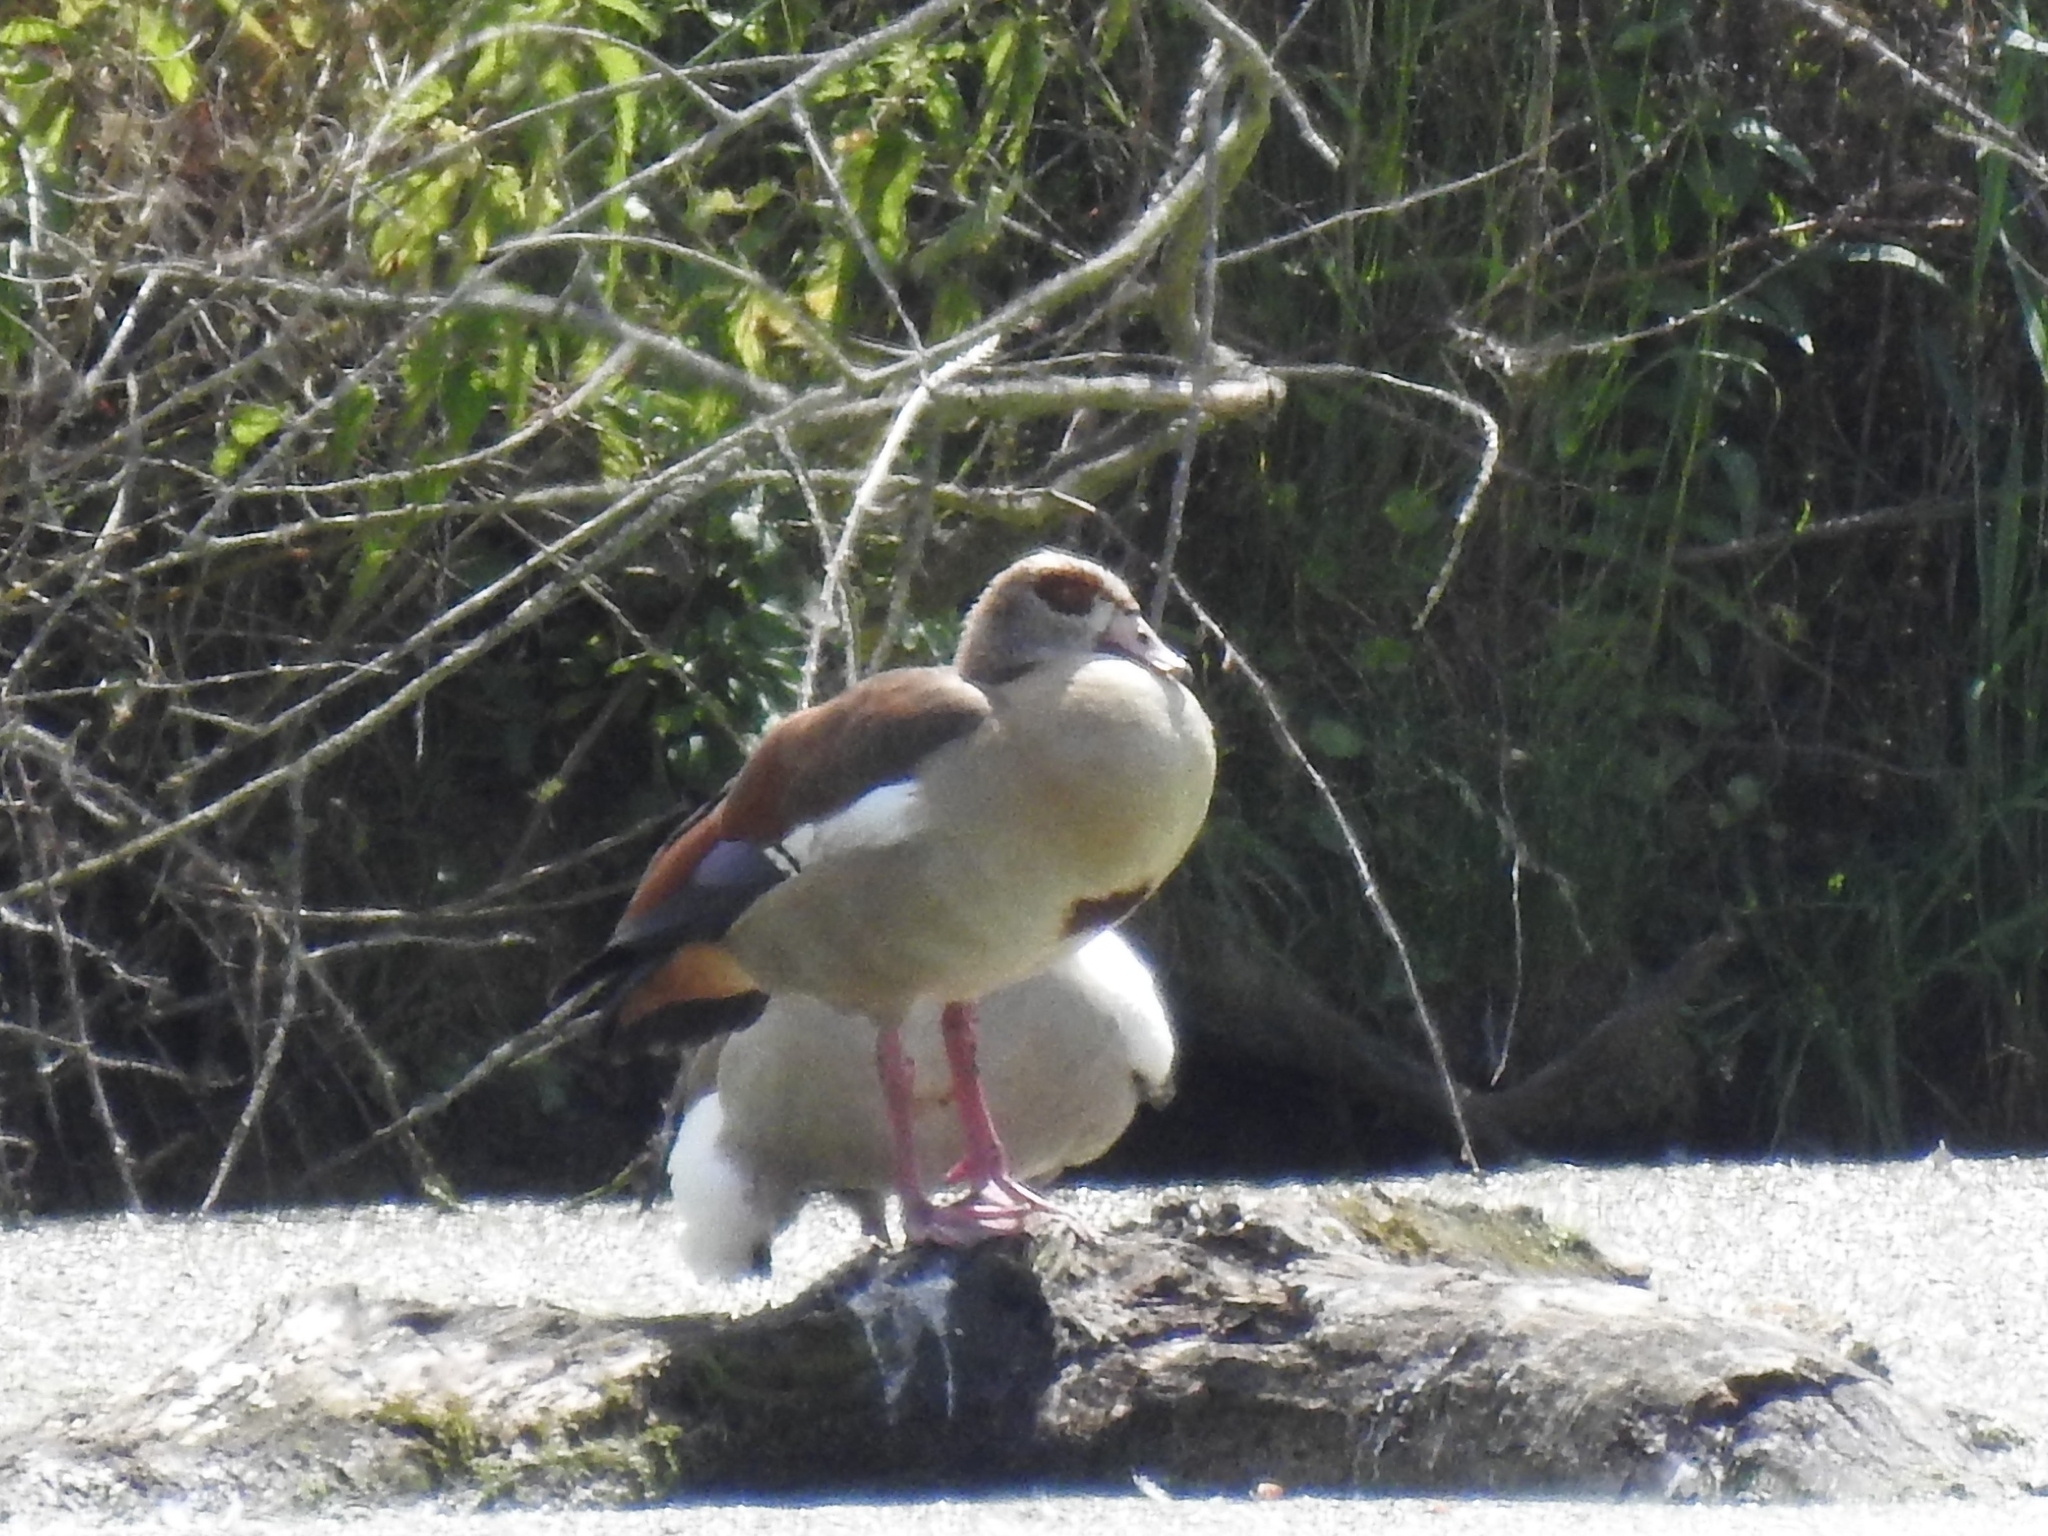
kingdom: Animalia
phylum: Chordata
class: Aves
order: Anseriformes
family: Anatidae
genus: Alopochen
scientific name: Alopochen aegyptiaca
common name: Egyptian goose
